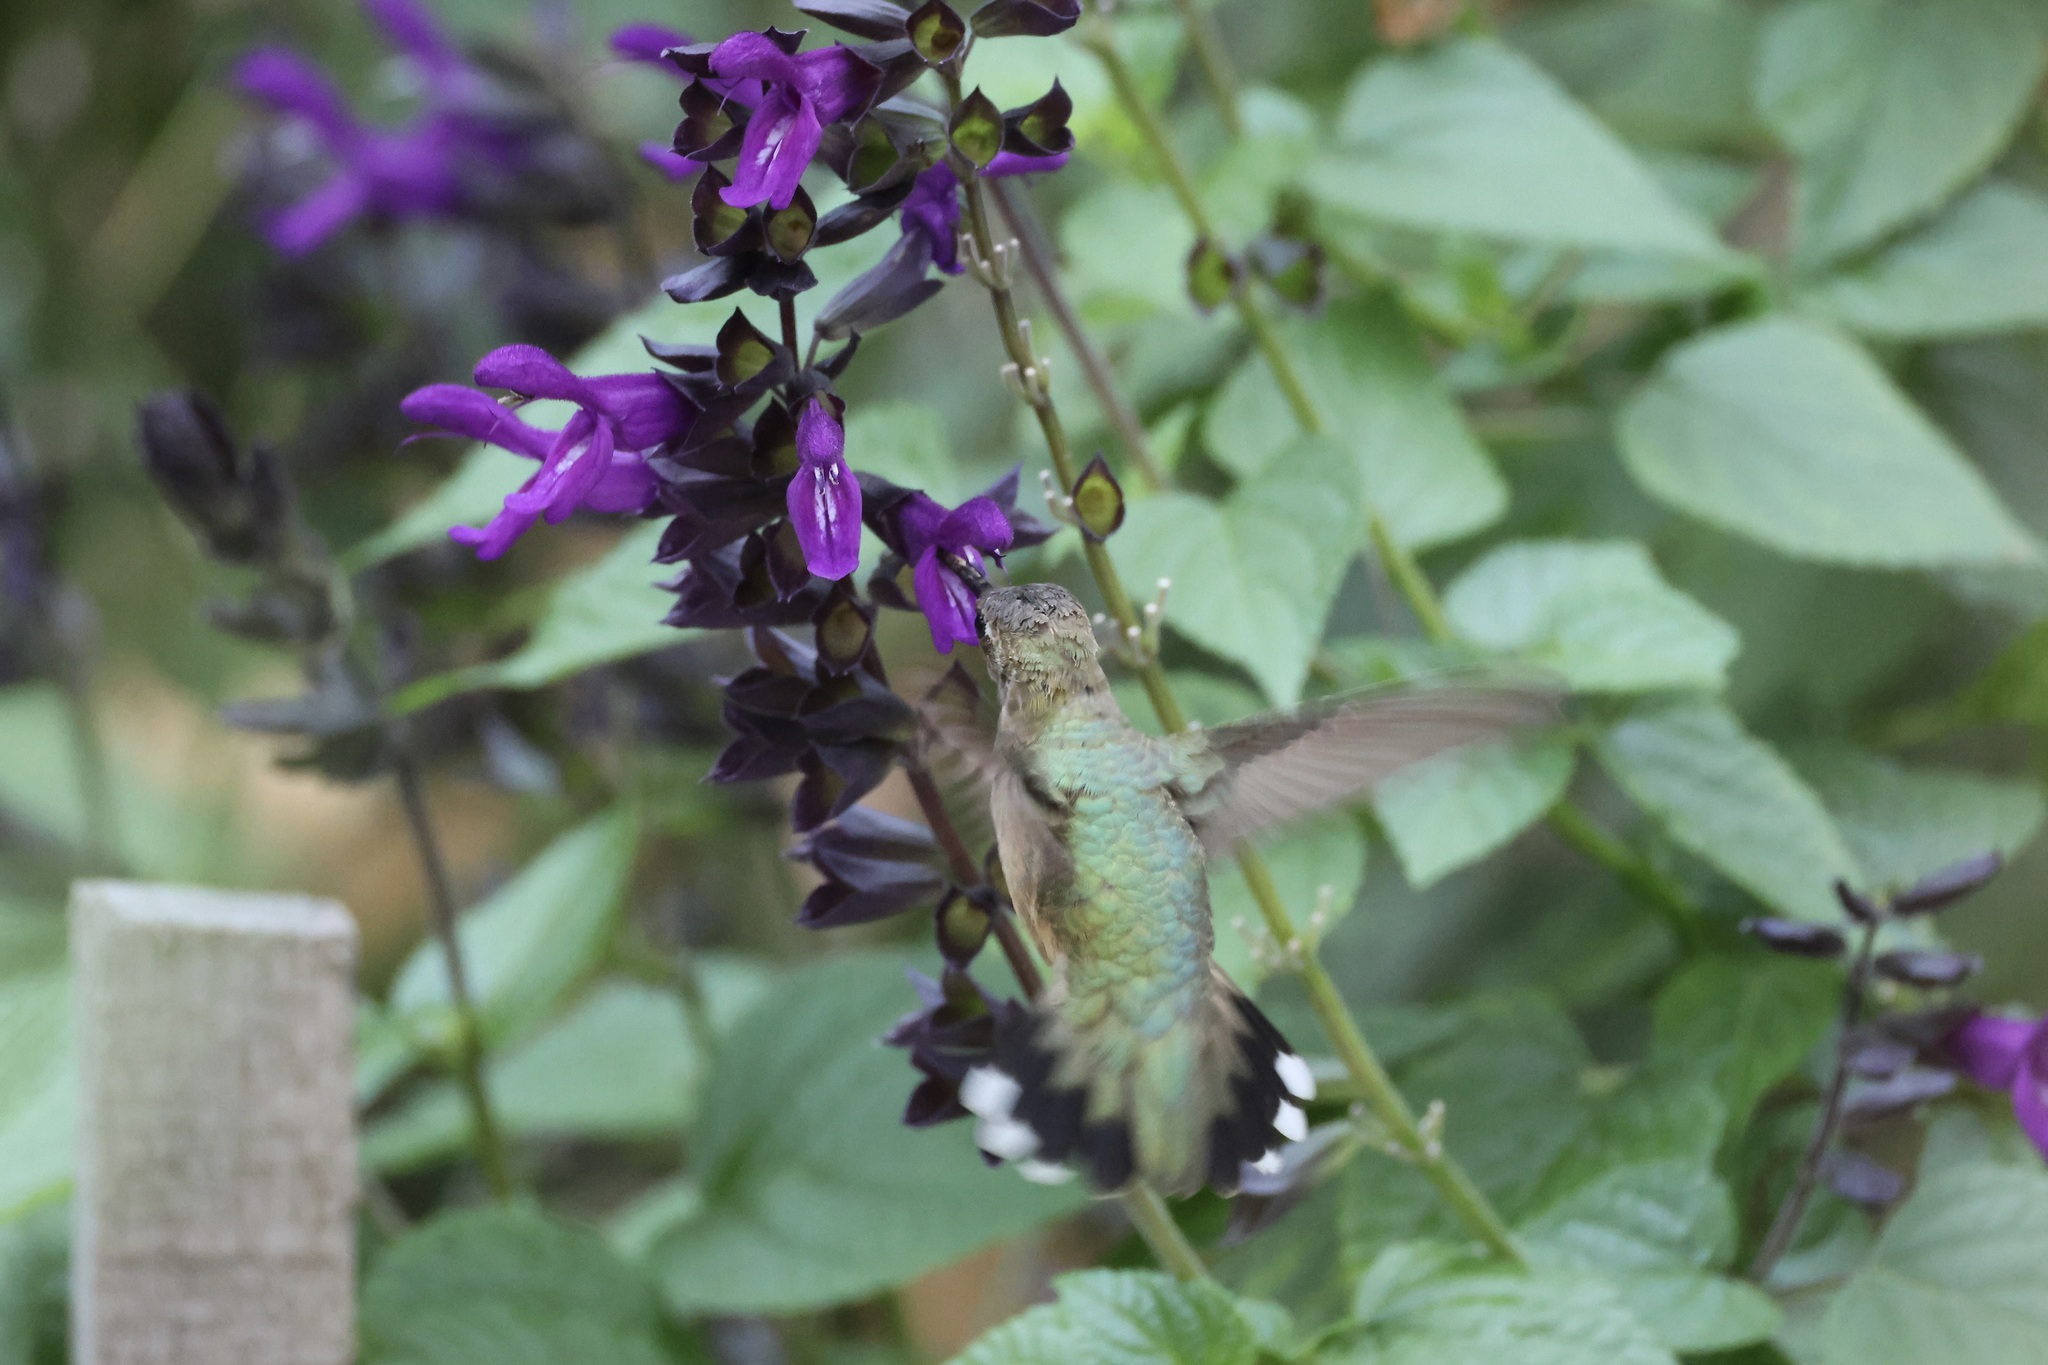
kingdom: Animalia
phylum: Chordata
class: Aves
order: Apodiformes
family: Trochilidae
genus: Archilochus
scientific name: Archilochus alexandri
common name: Black-chinned hummingbird
